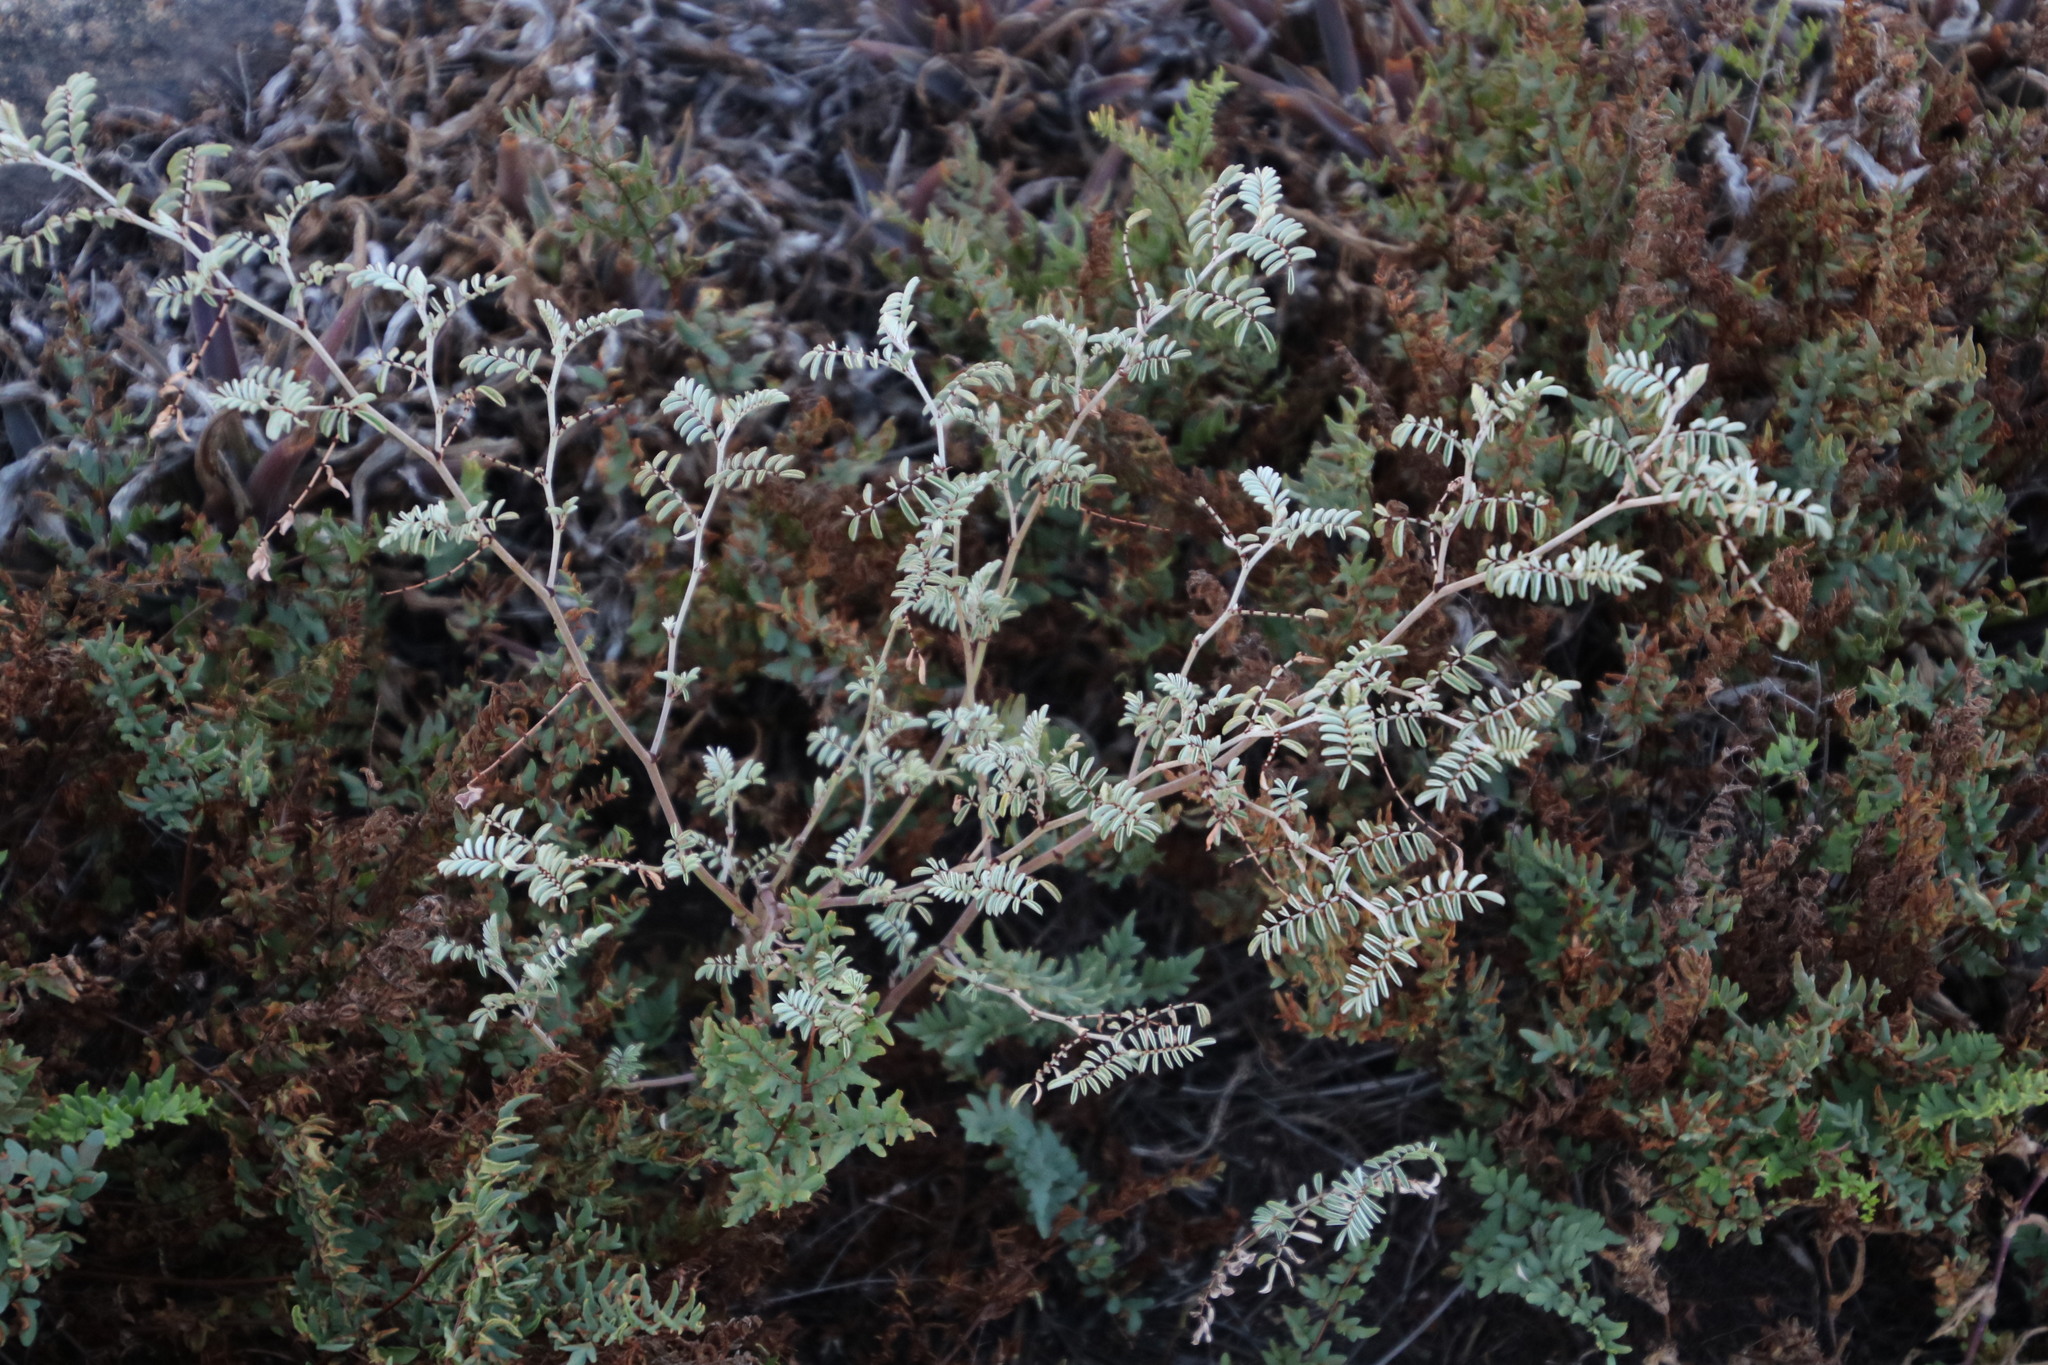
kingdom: Plantae
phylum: Tracheophyta
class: Magnoliopsida
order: Fabales
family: Fabaceae
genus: Indigofera
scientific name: Indigofera melanadenia
